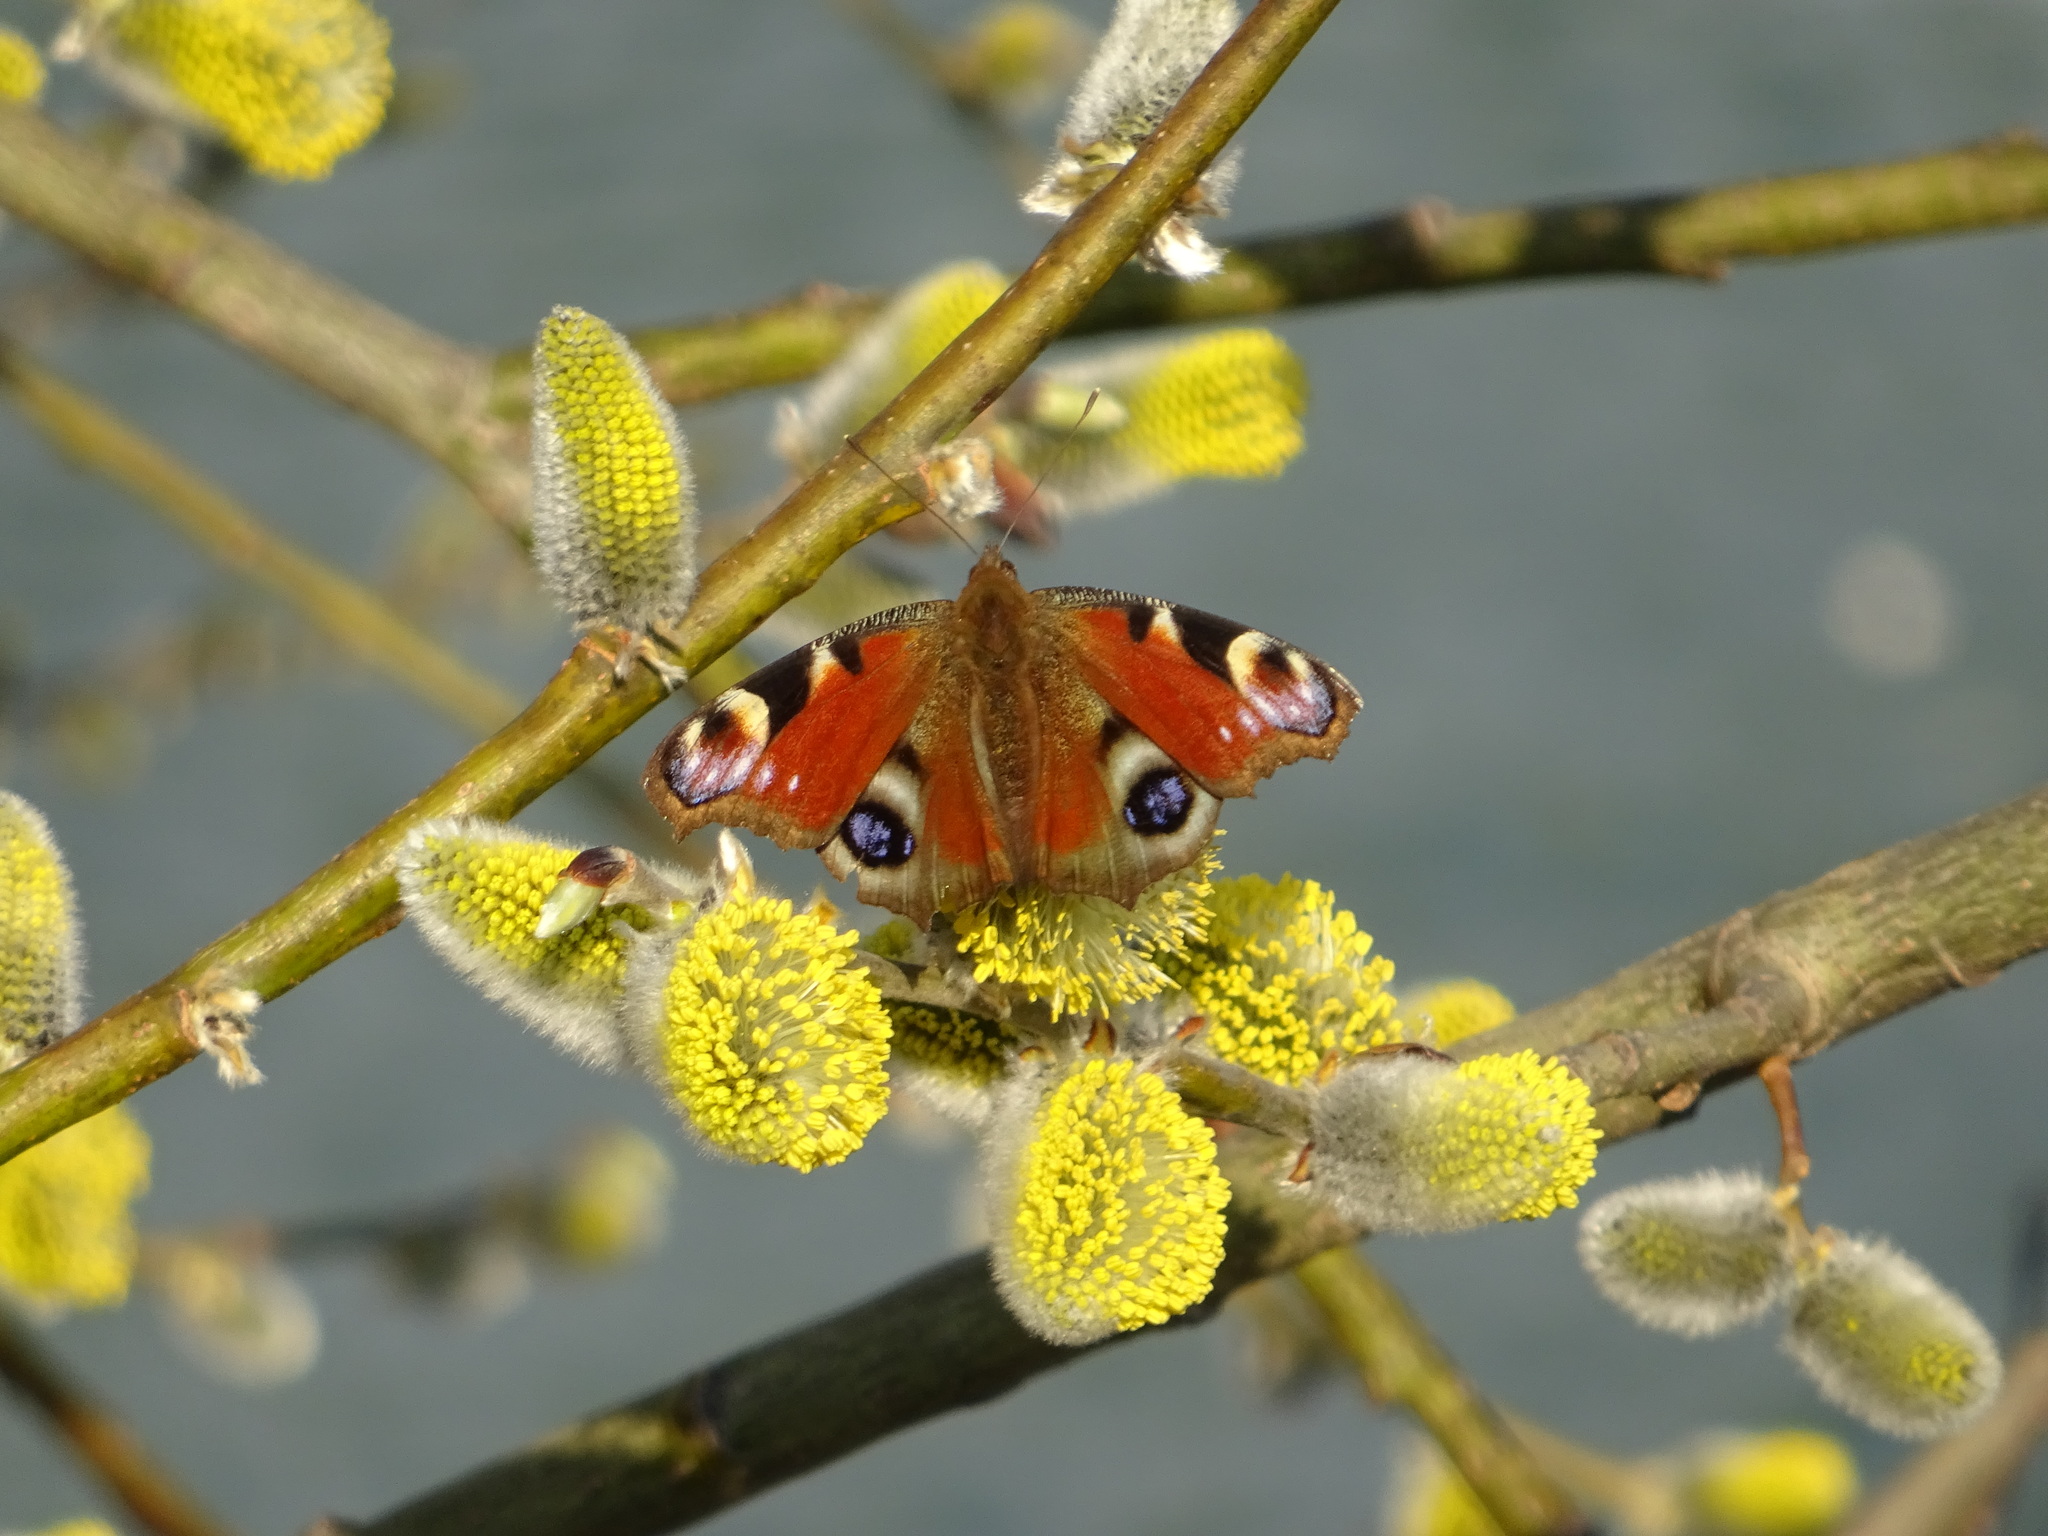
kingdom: Animalia
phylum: Arthropoda
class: Insecta
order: Lepidoptera
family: Nymphalidae
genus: Aglais
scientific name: Aglais io
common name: Peacock
